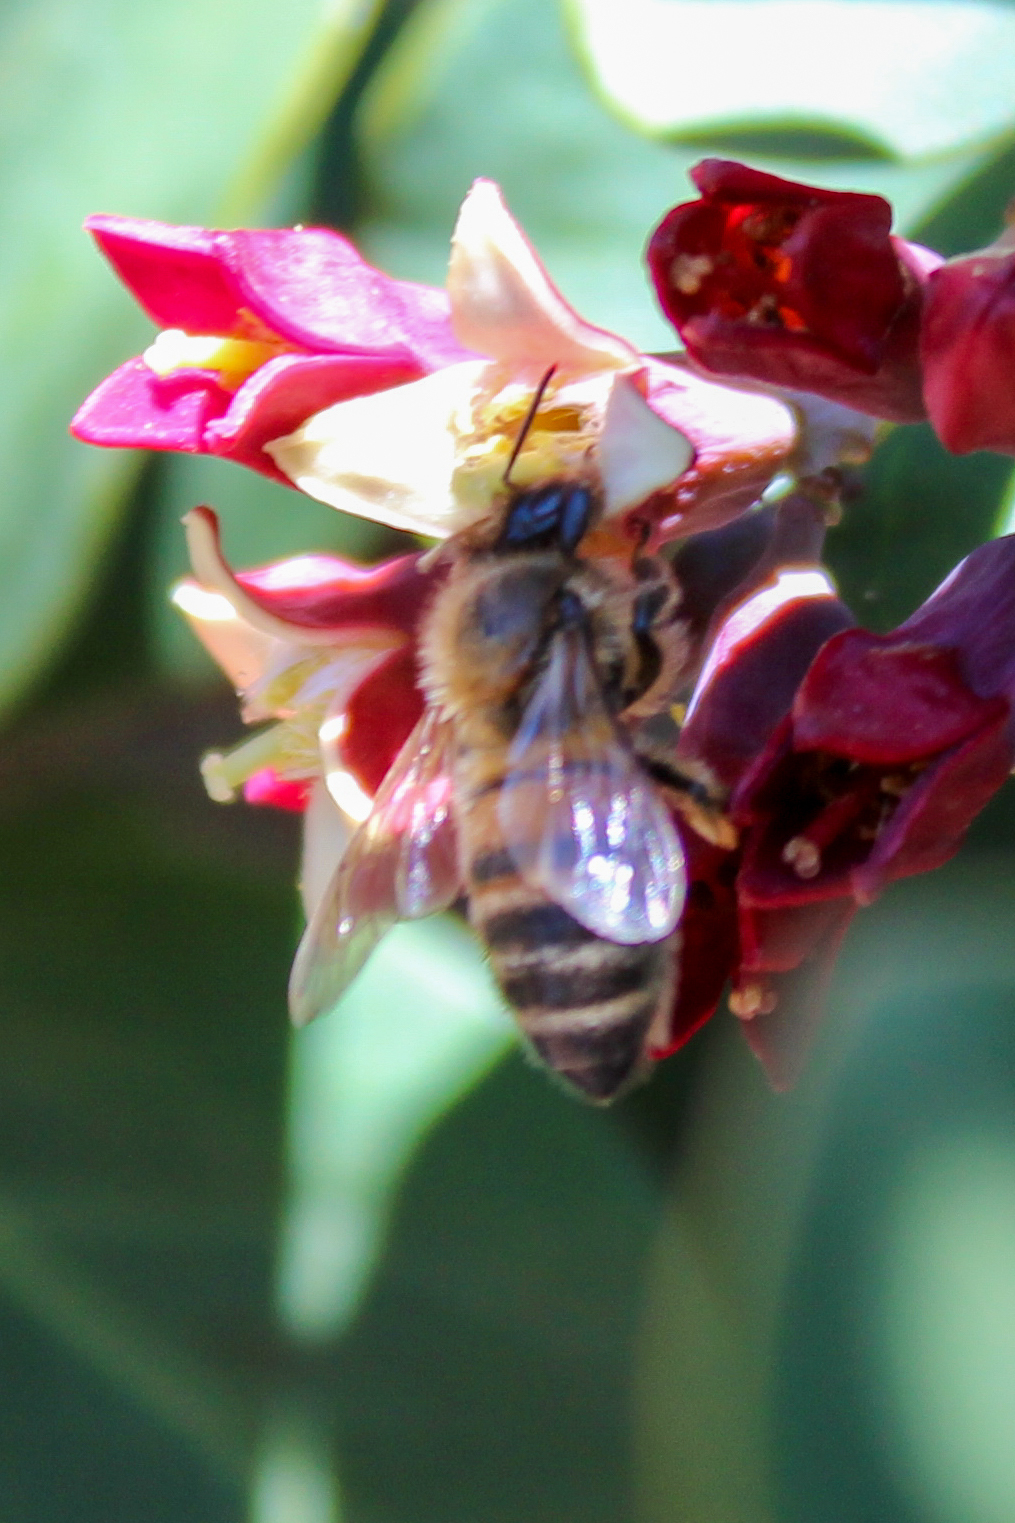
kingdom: Animalia
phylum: Arthropoda
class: Insecta
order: Hymenoptera
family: Apidae
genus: Apis
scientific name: Apis mellifera
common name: Honey bee
